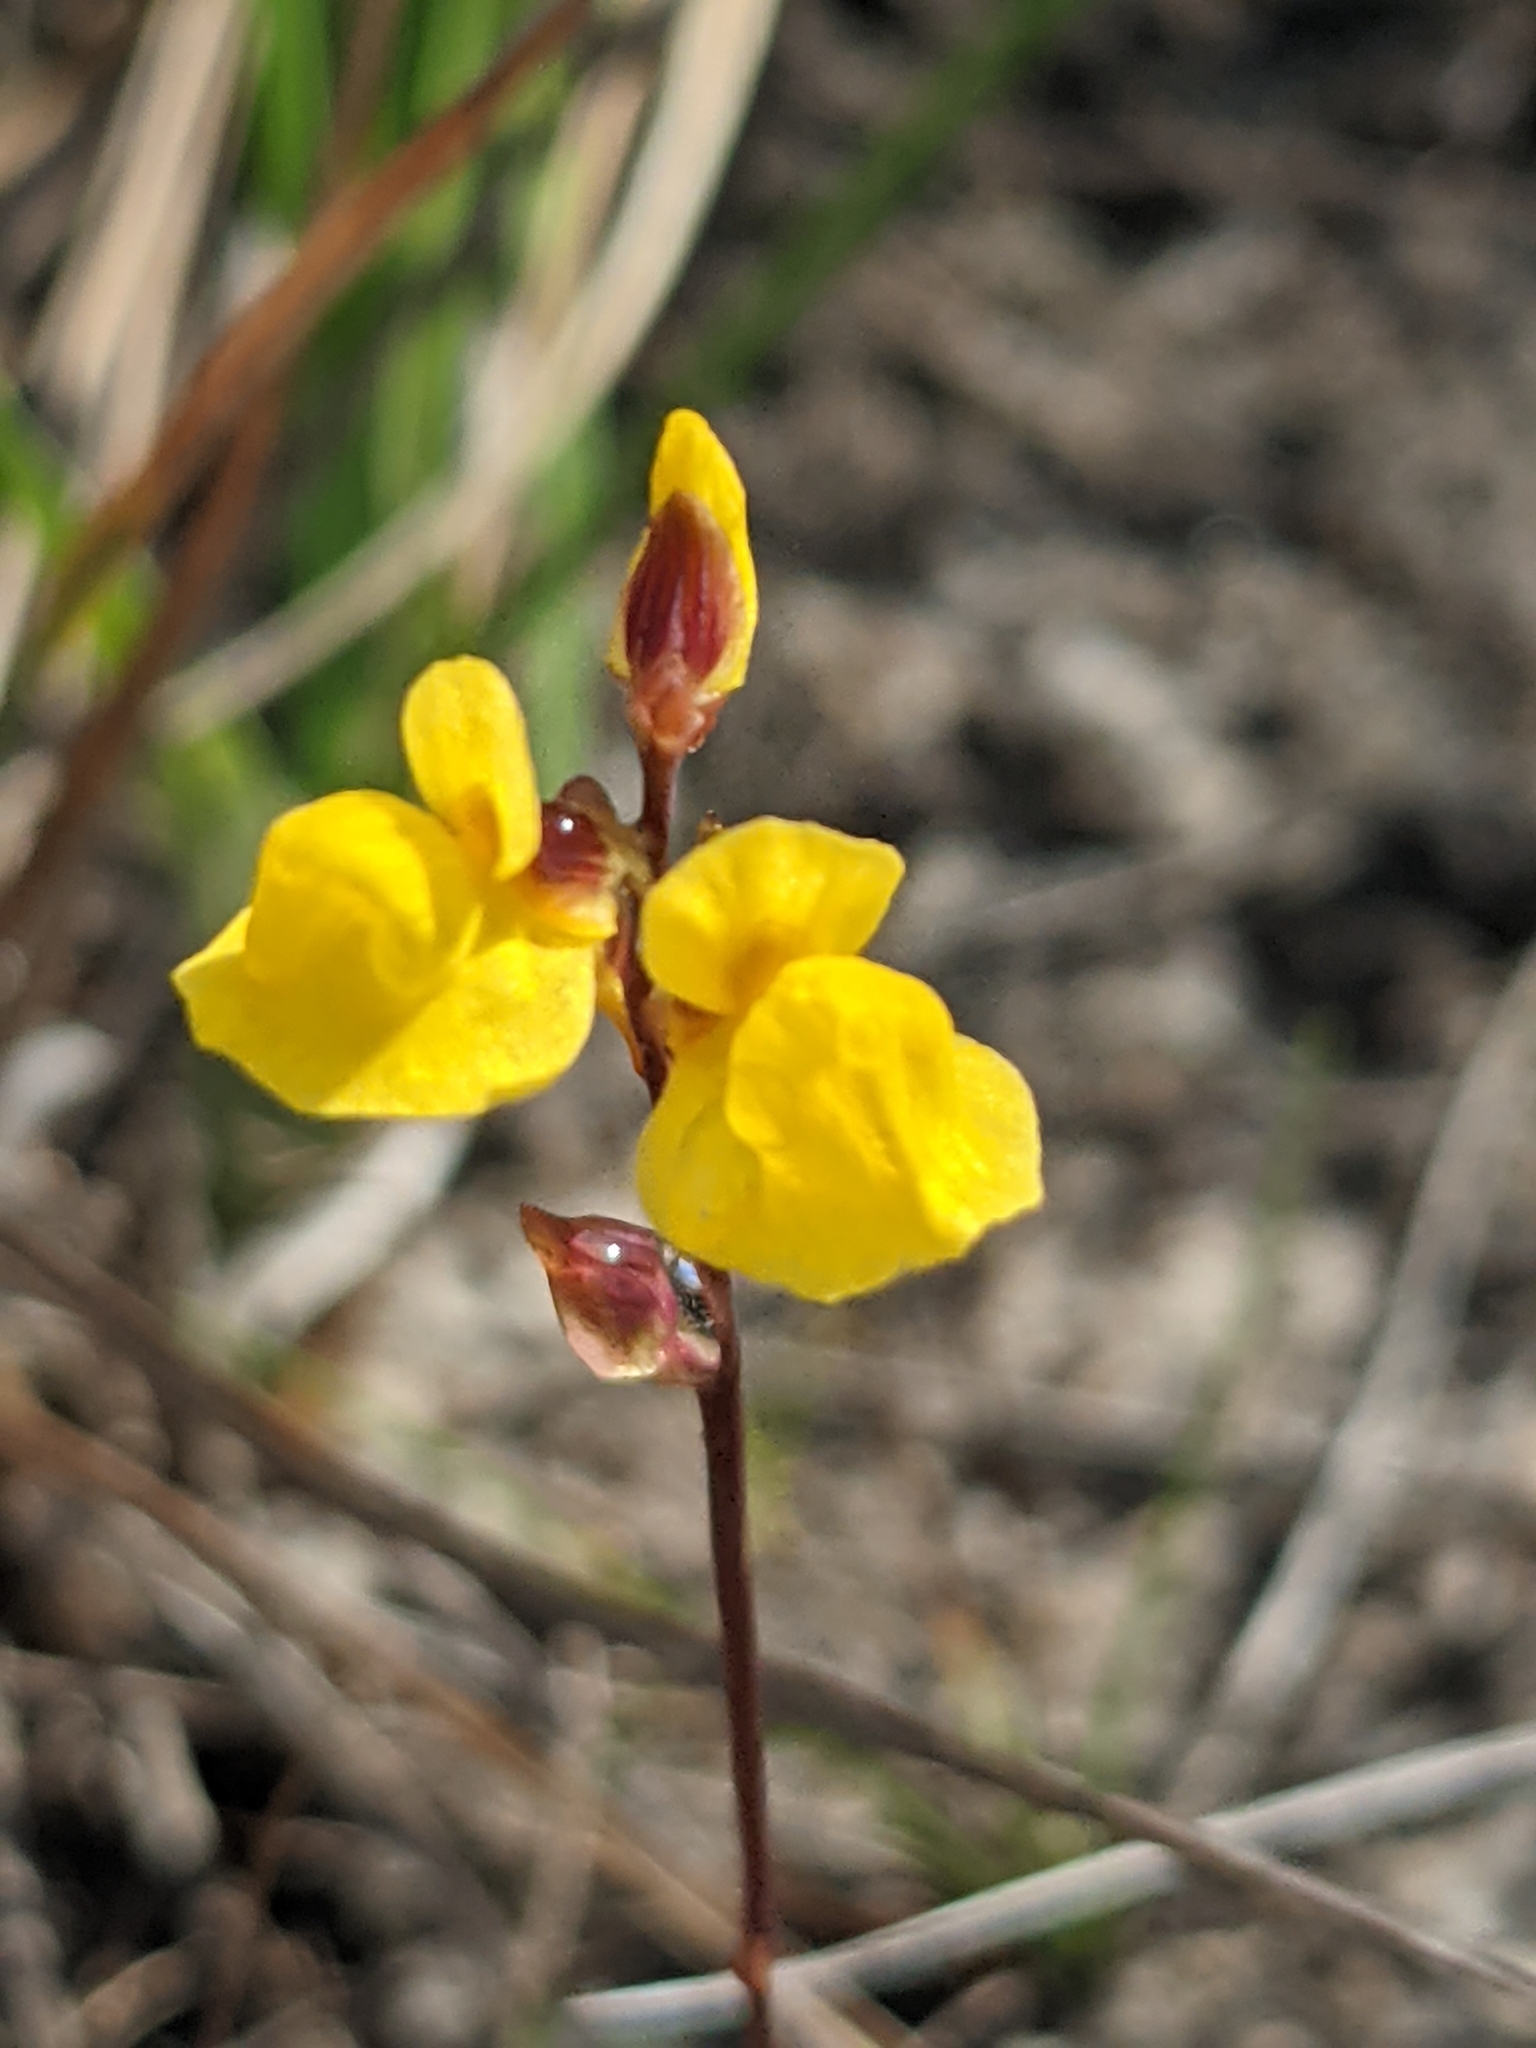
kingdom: Plantae
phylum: Tracheophyta
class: Magnoliopsida
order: Lamiales
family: Lentibulariaceae
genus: Utricularia
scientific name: Utricularia juncea
